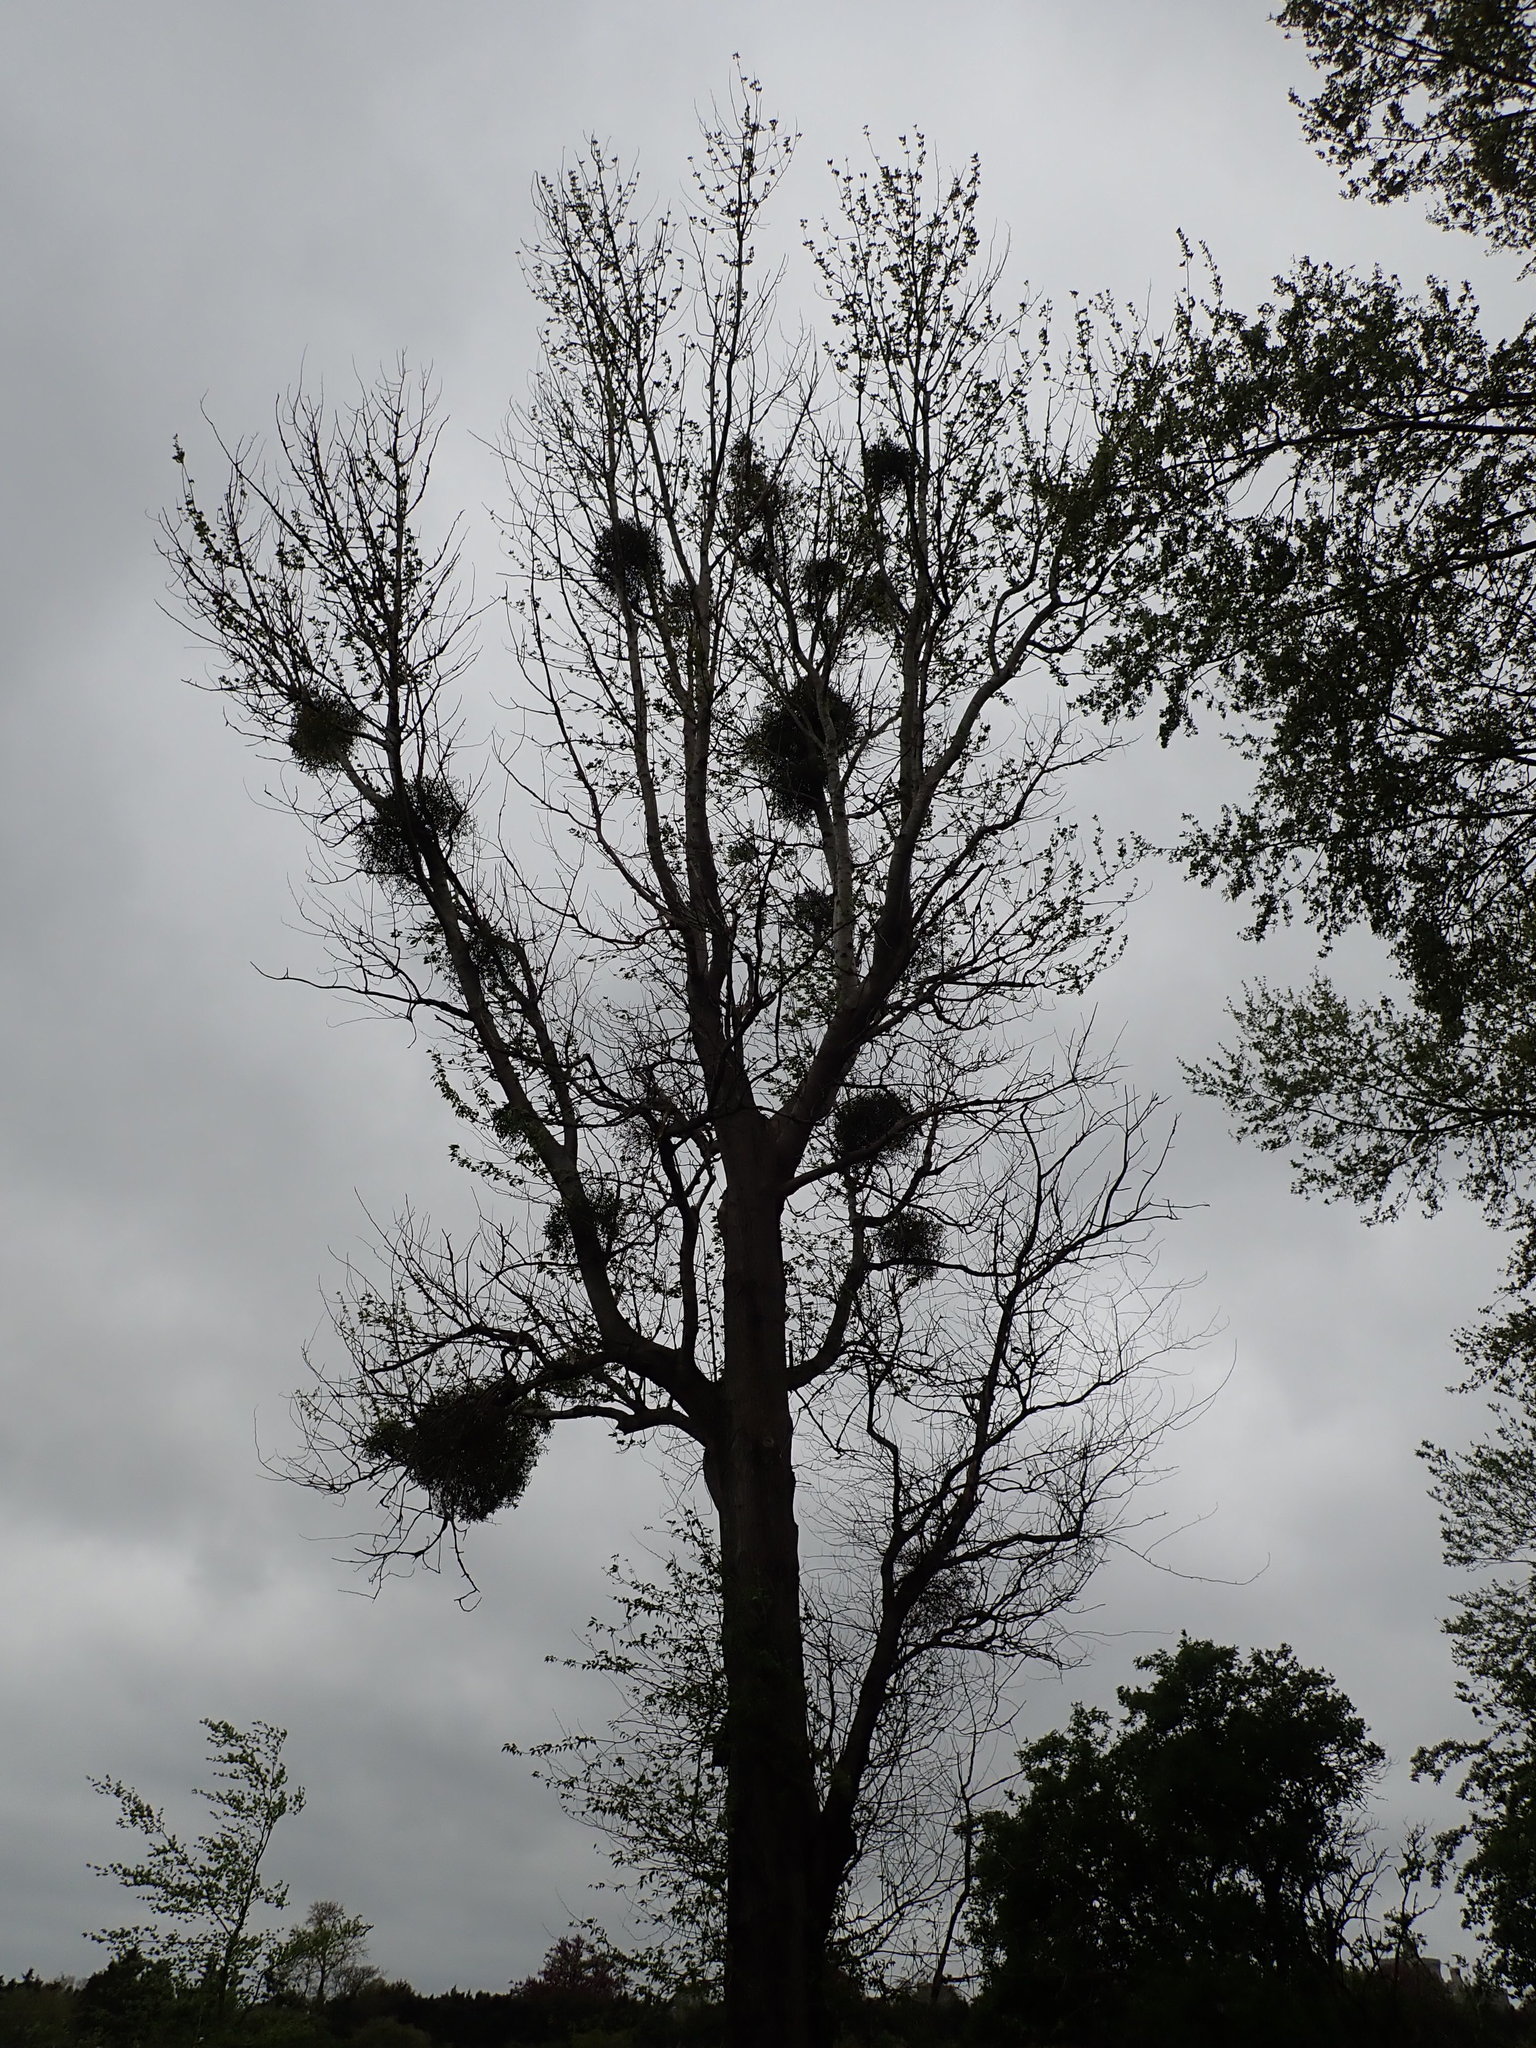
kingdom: Plantae
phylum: Tracheophyta
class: Magnoliopsida
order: Santalales
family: Viscaceae
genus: Viscum
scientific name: Viscum album
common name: Mistletoe
